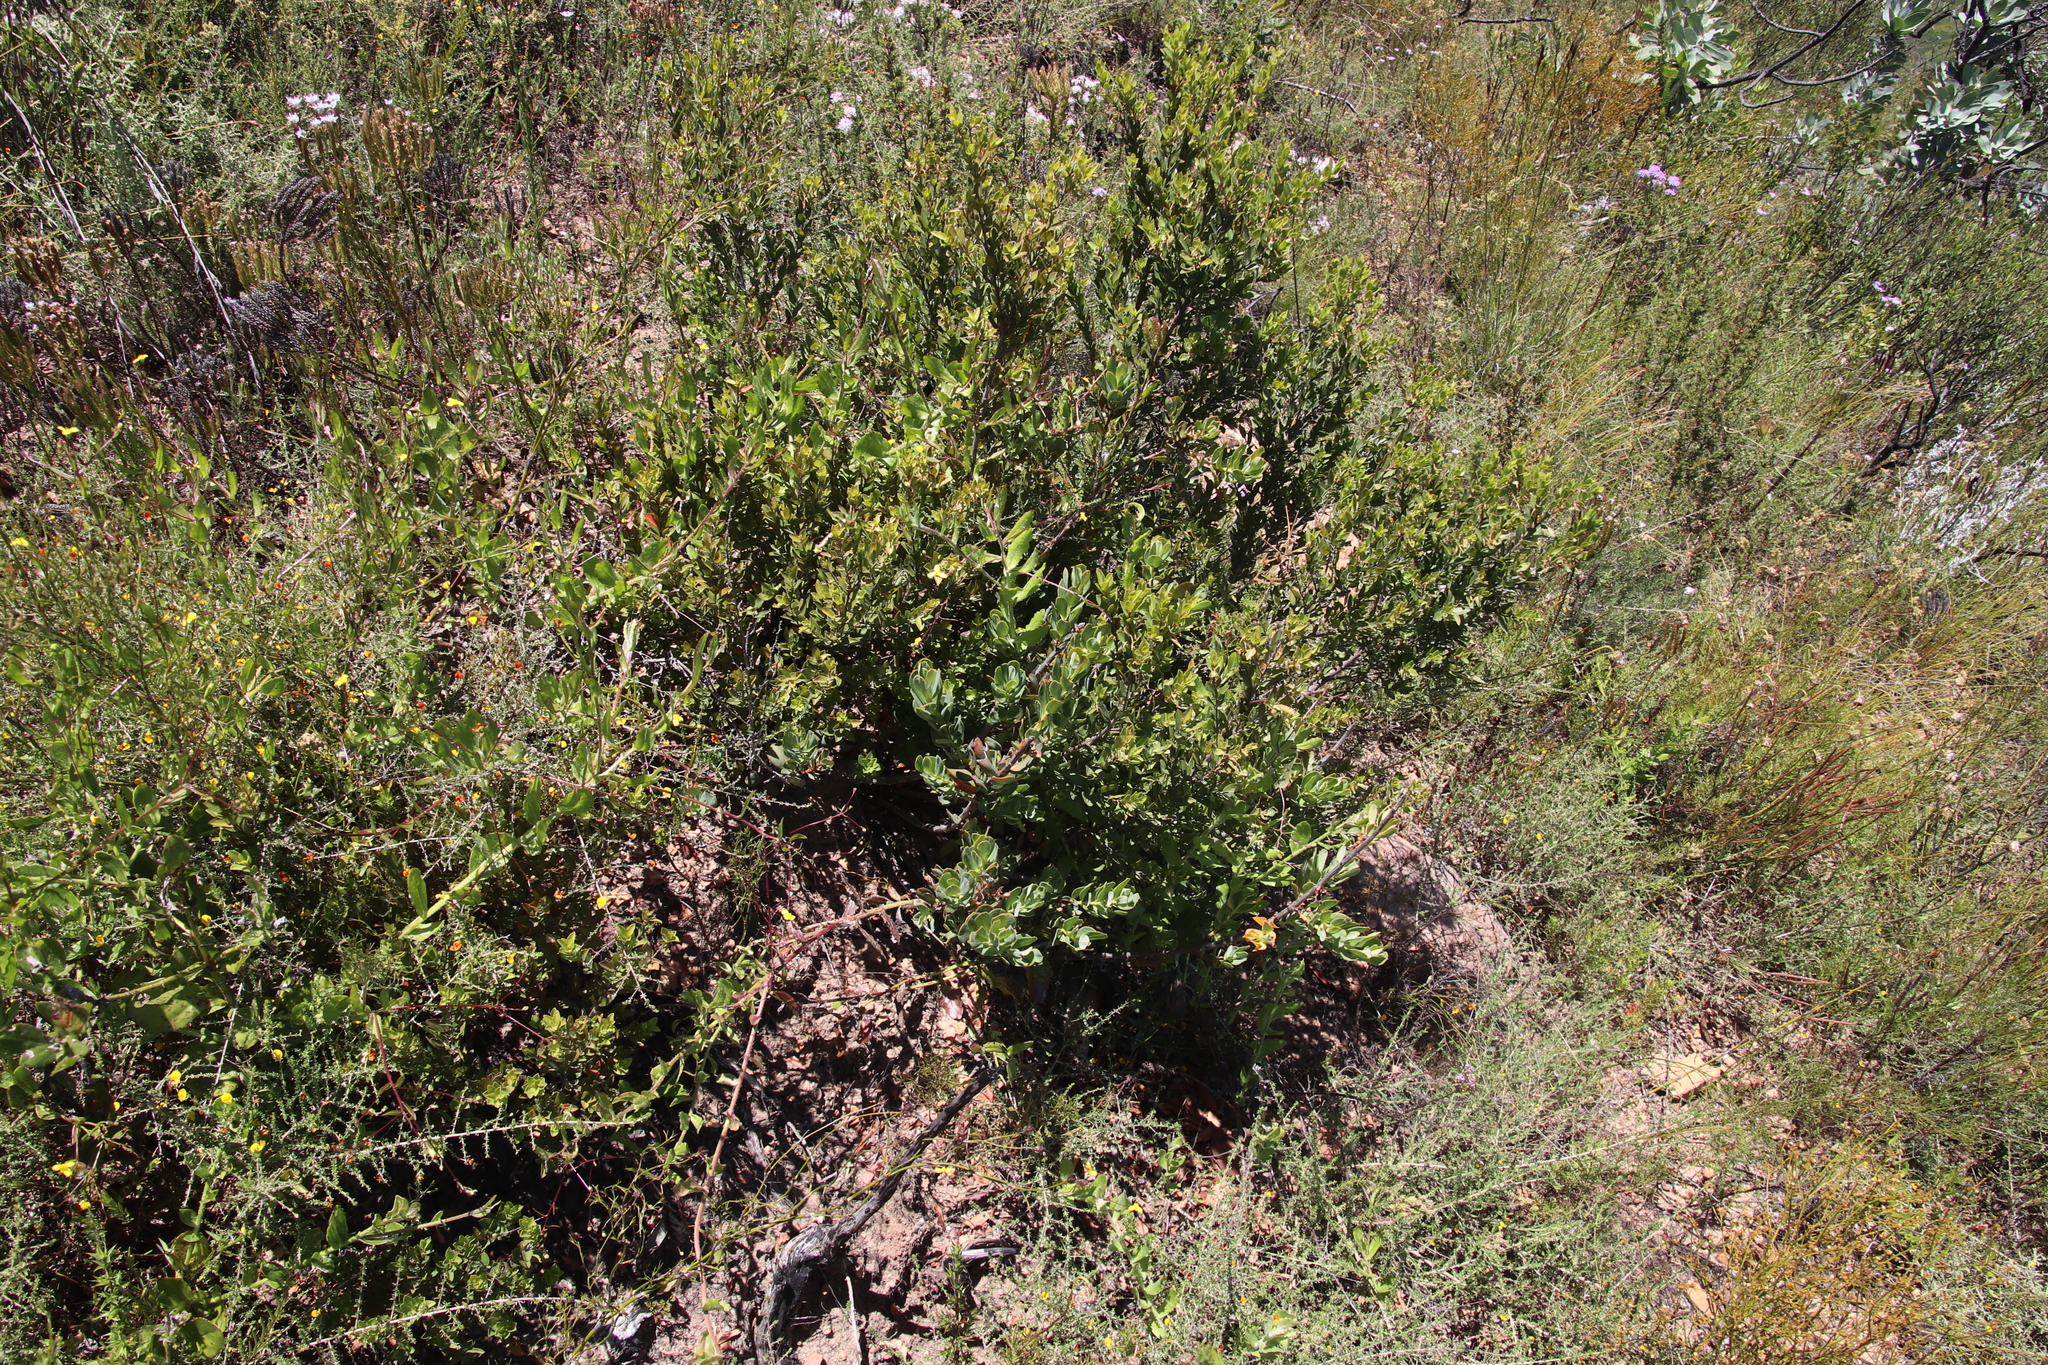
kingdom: Plantae
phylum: Tracheophyta
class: Magnoliopsida
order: Ericales
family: Ebenaceae
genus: Diospyros
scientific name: Diospyros glabra
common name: Fynbos star apple
